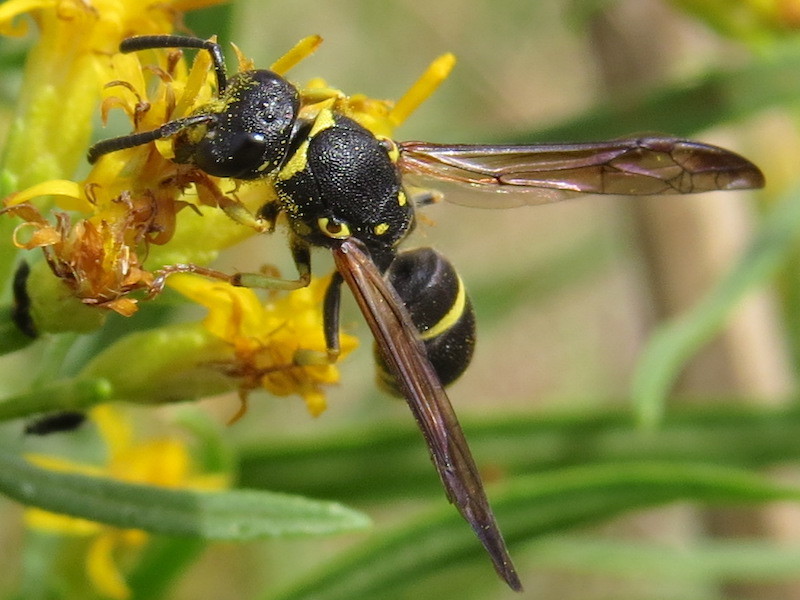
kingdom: Animalia
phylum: Arthropoda
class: Insecta
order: Hymenoptera
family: Vespidae
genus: Ancistrocerus
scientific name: Ancistrocerus adiabatus
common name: Bramble mason wasp
